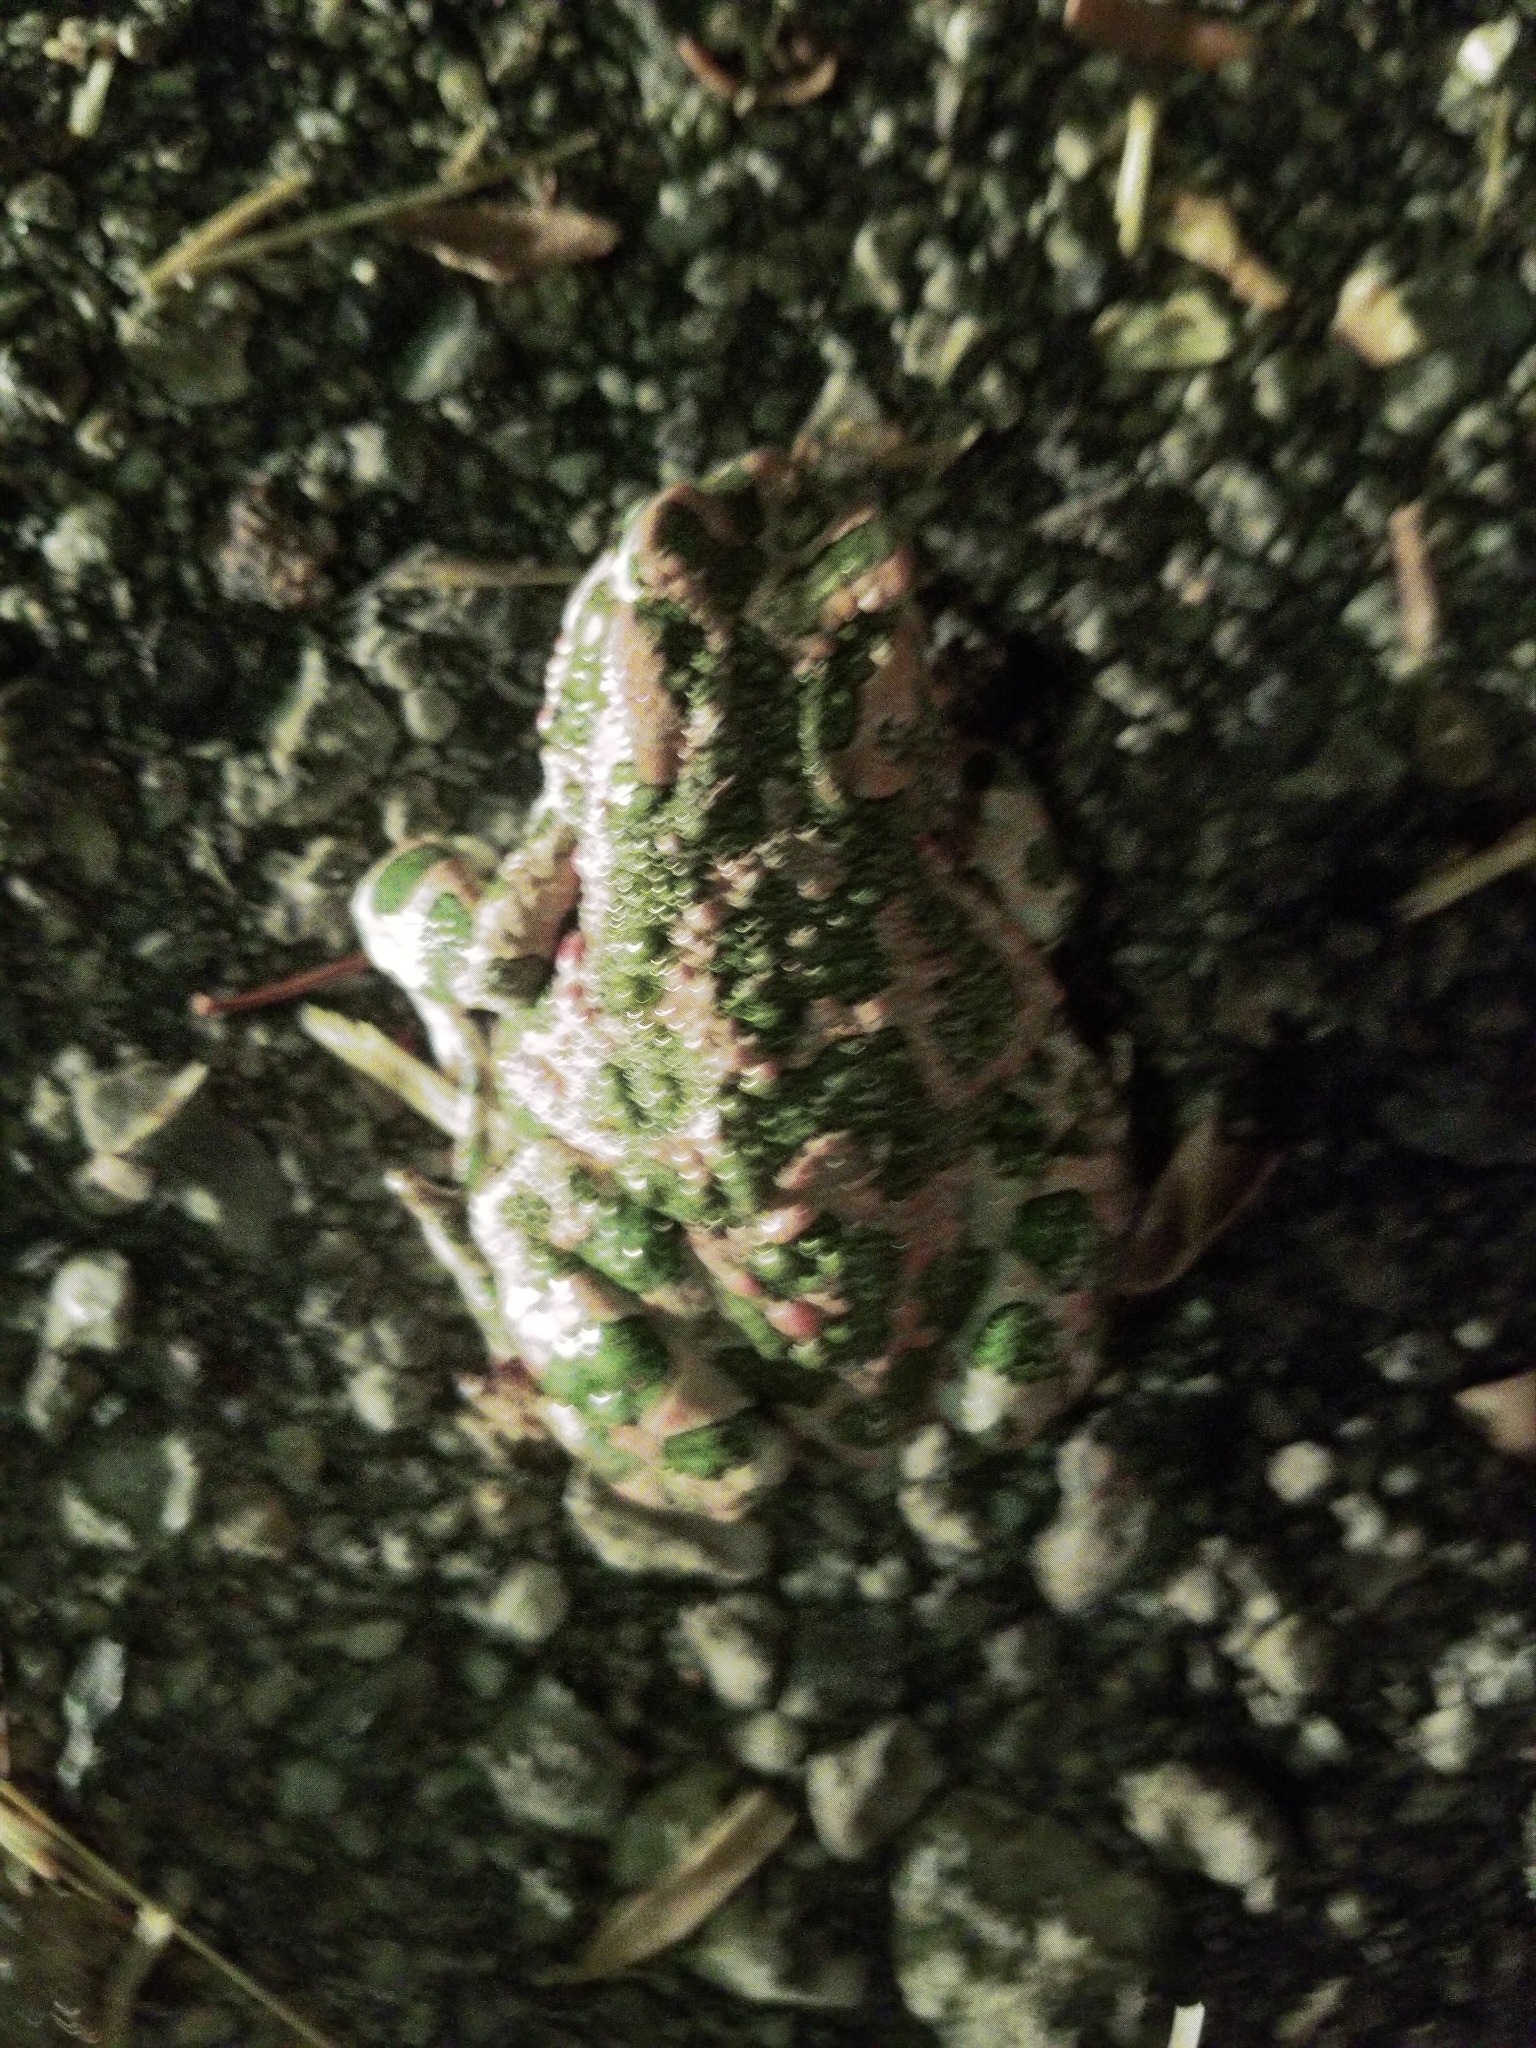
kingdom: Animalia
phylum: Chordata
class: Amphibia
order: Anura
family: Bufonidae
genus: Bufotes
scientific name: Bufotes viridis
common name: European green toad
